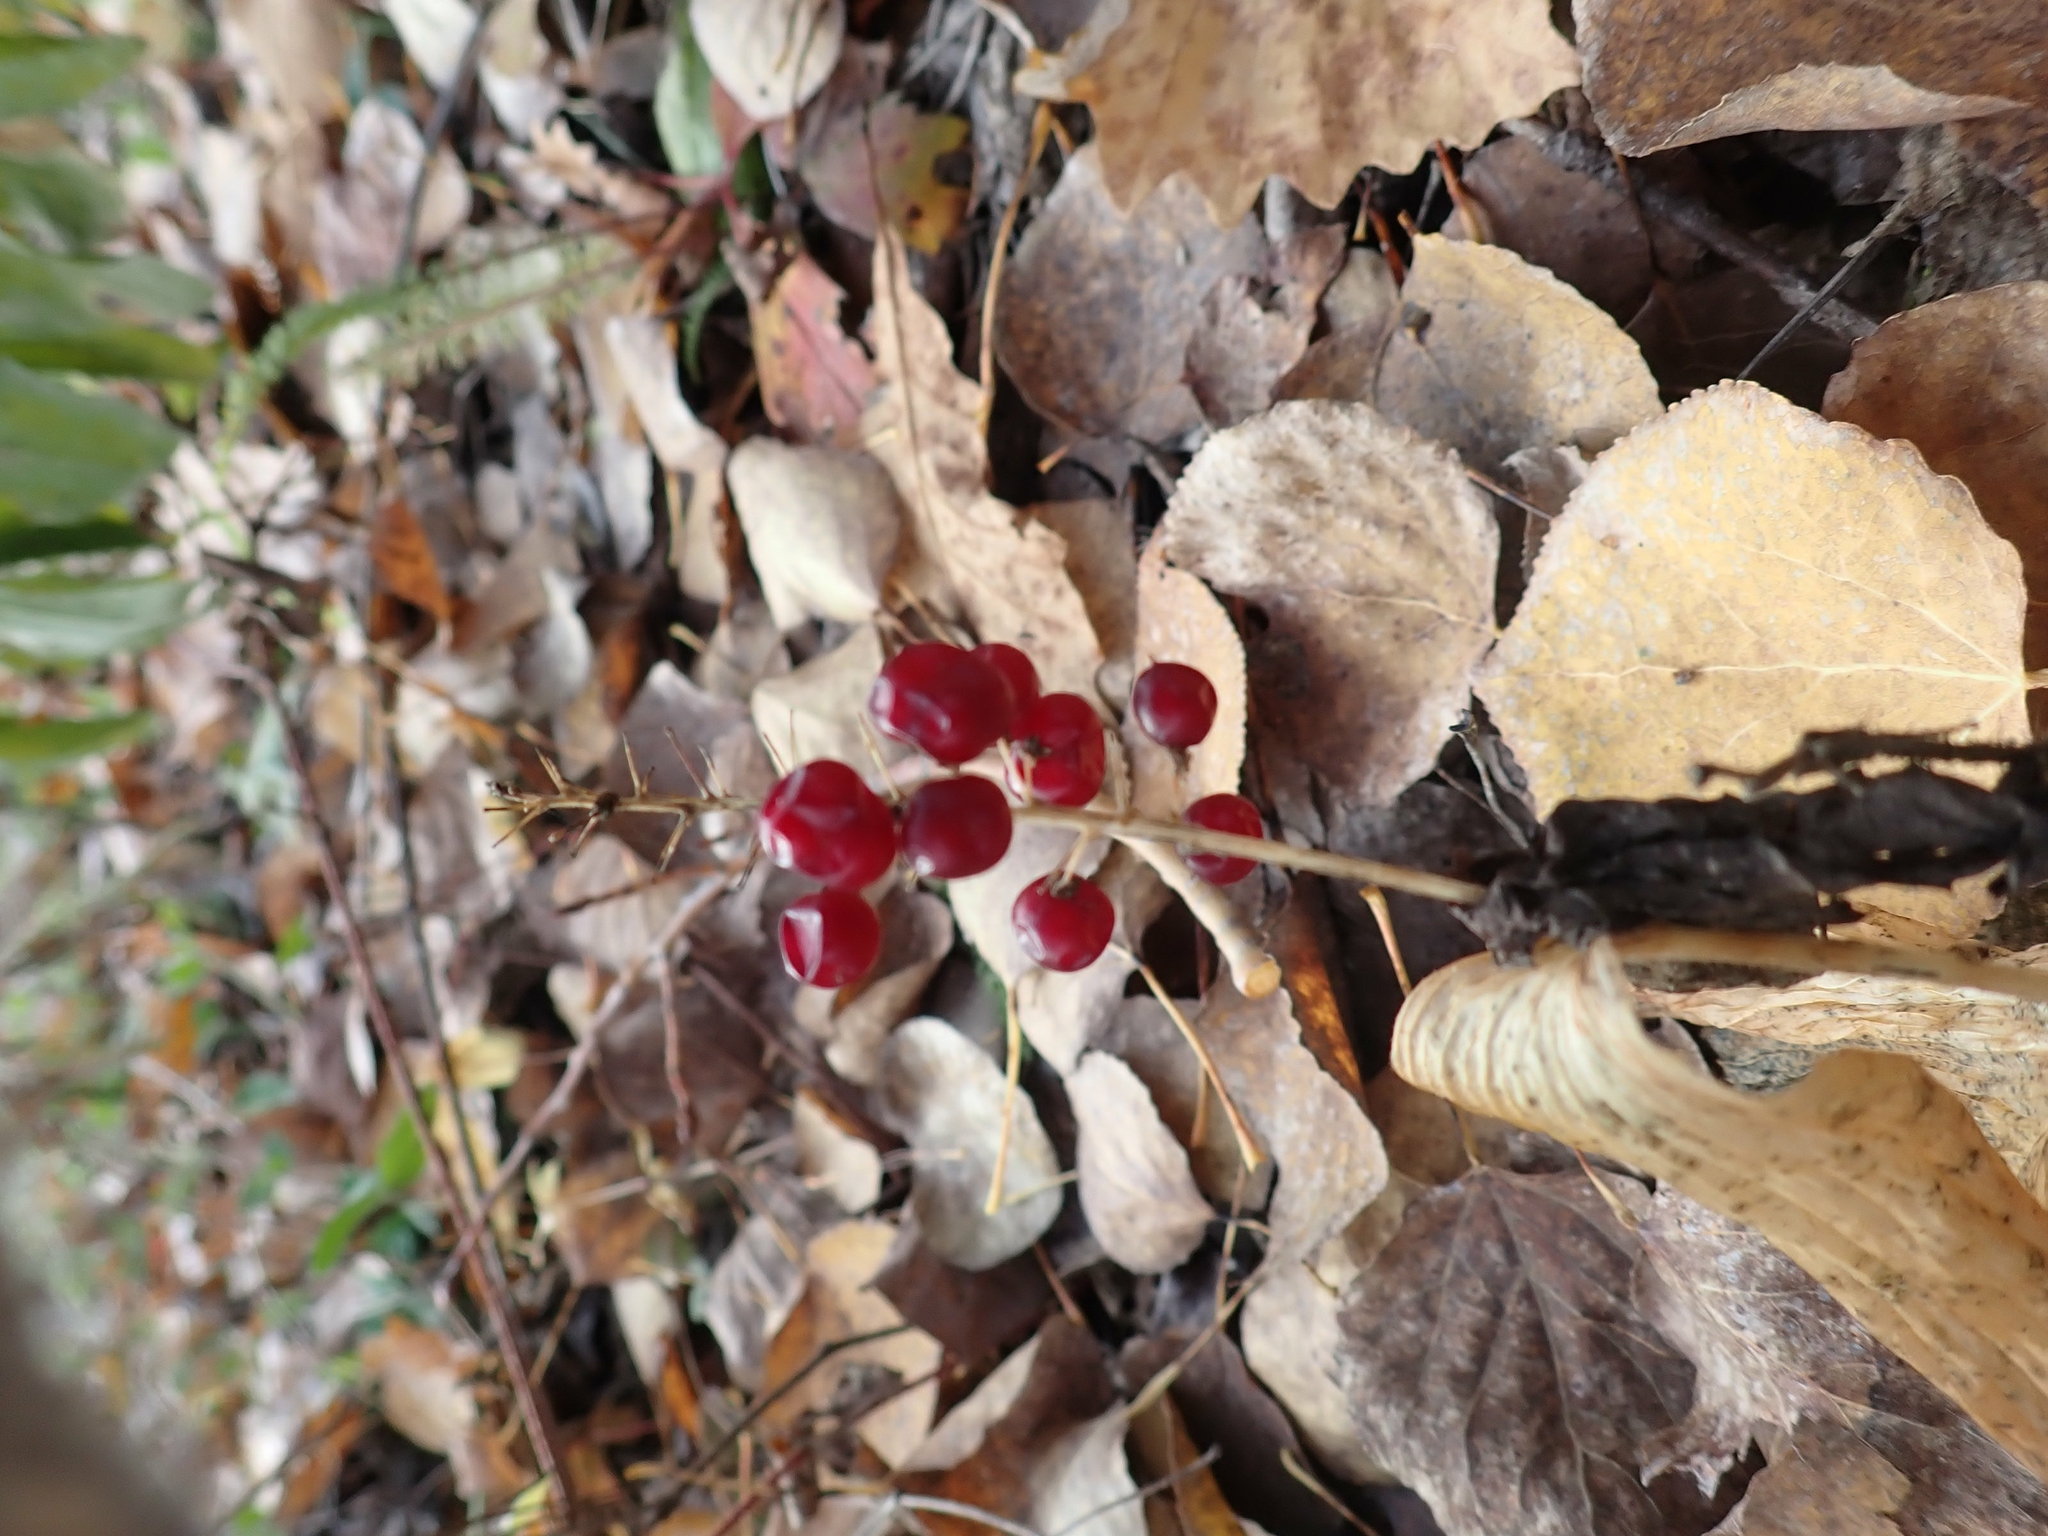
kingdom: Plantae
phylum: Tracheophyta
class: Liliopsida
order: Asparagales
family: Asparagaceae
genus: Maianthemum
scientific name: Maianthemum canadense
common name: False lily-of-the-valley
